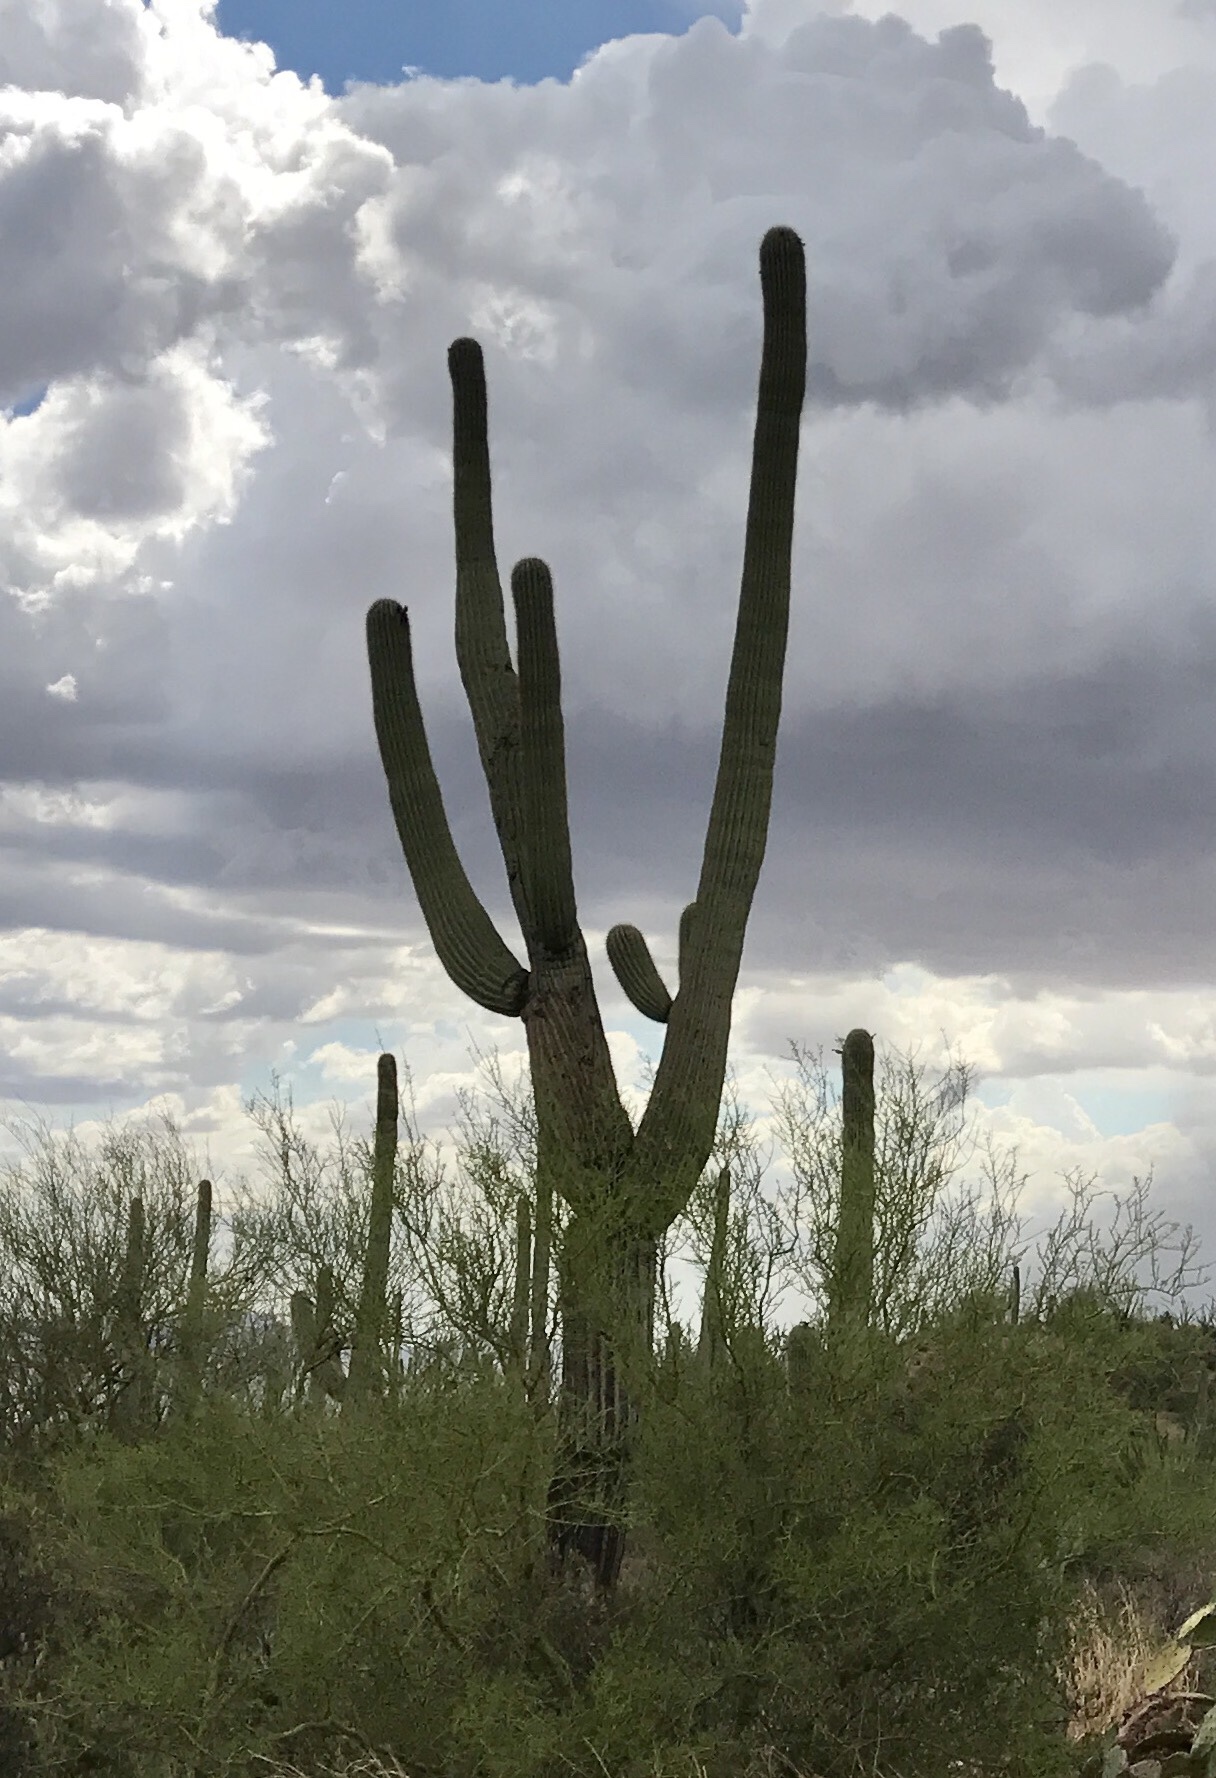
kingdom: Plantae
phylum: Tracheophyta
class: Magnoliopsida
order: Caryophyllales
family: Cactaceae
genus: Carnegiea
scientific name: Carnegiea gigantea
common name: Saguaro
